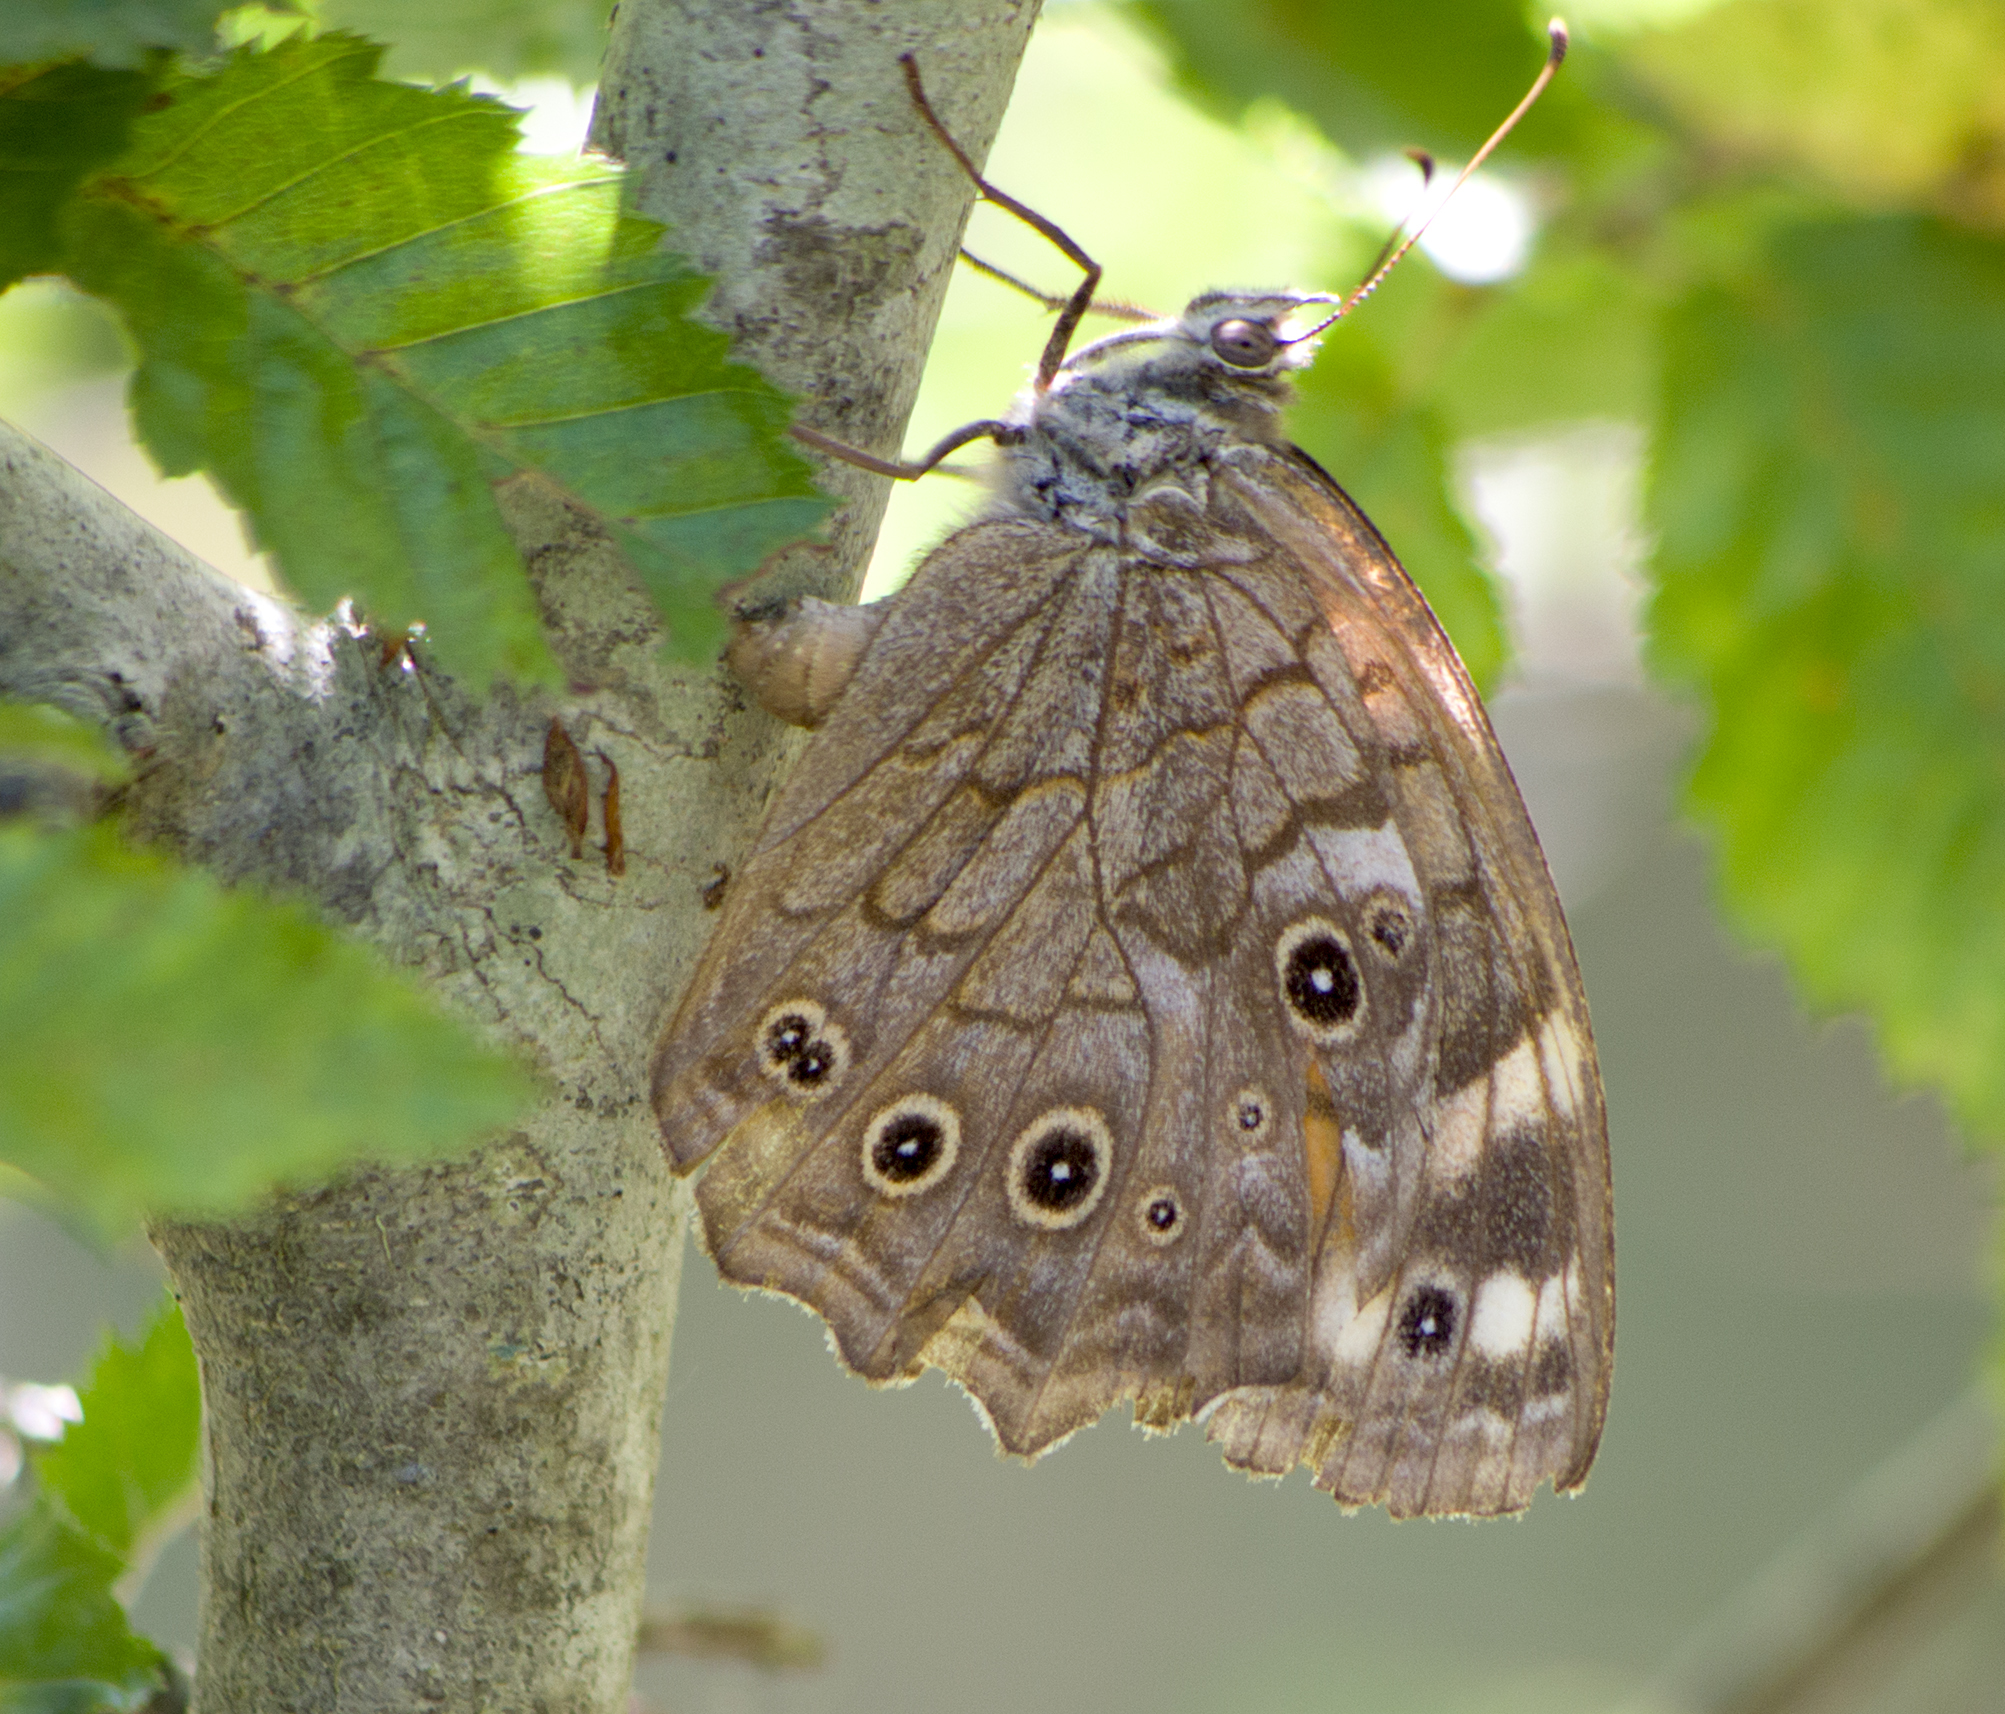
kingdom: Animalia
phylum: Arthropoda
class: Insecta
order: Lepidoptera
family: Nymphalidae
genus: Kirinia
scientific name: Kirinia roxelana
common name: Lattice brown
